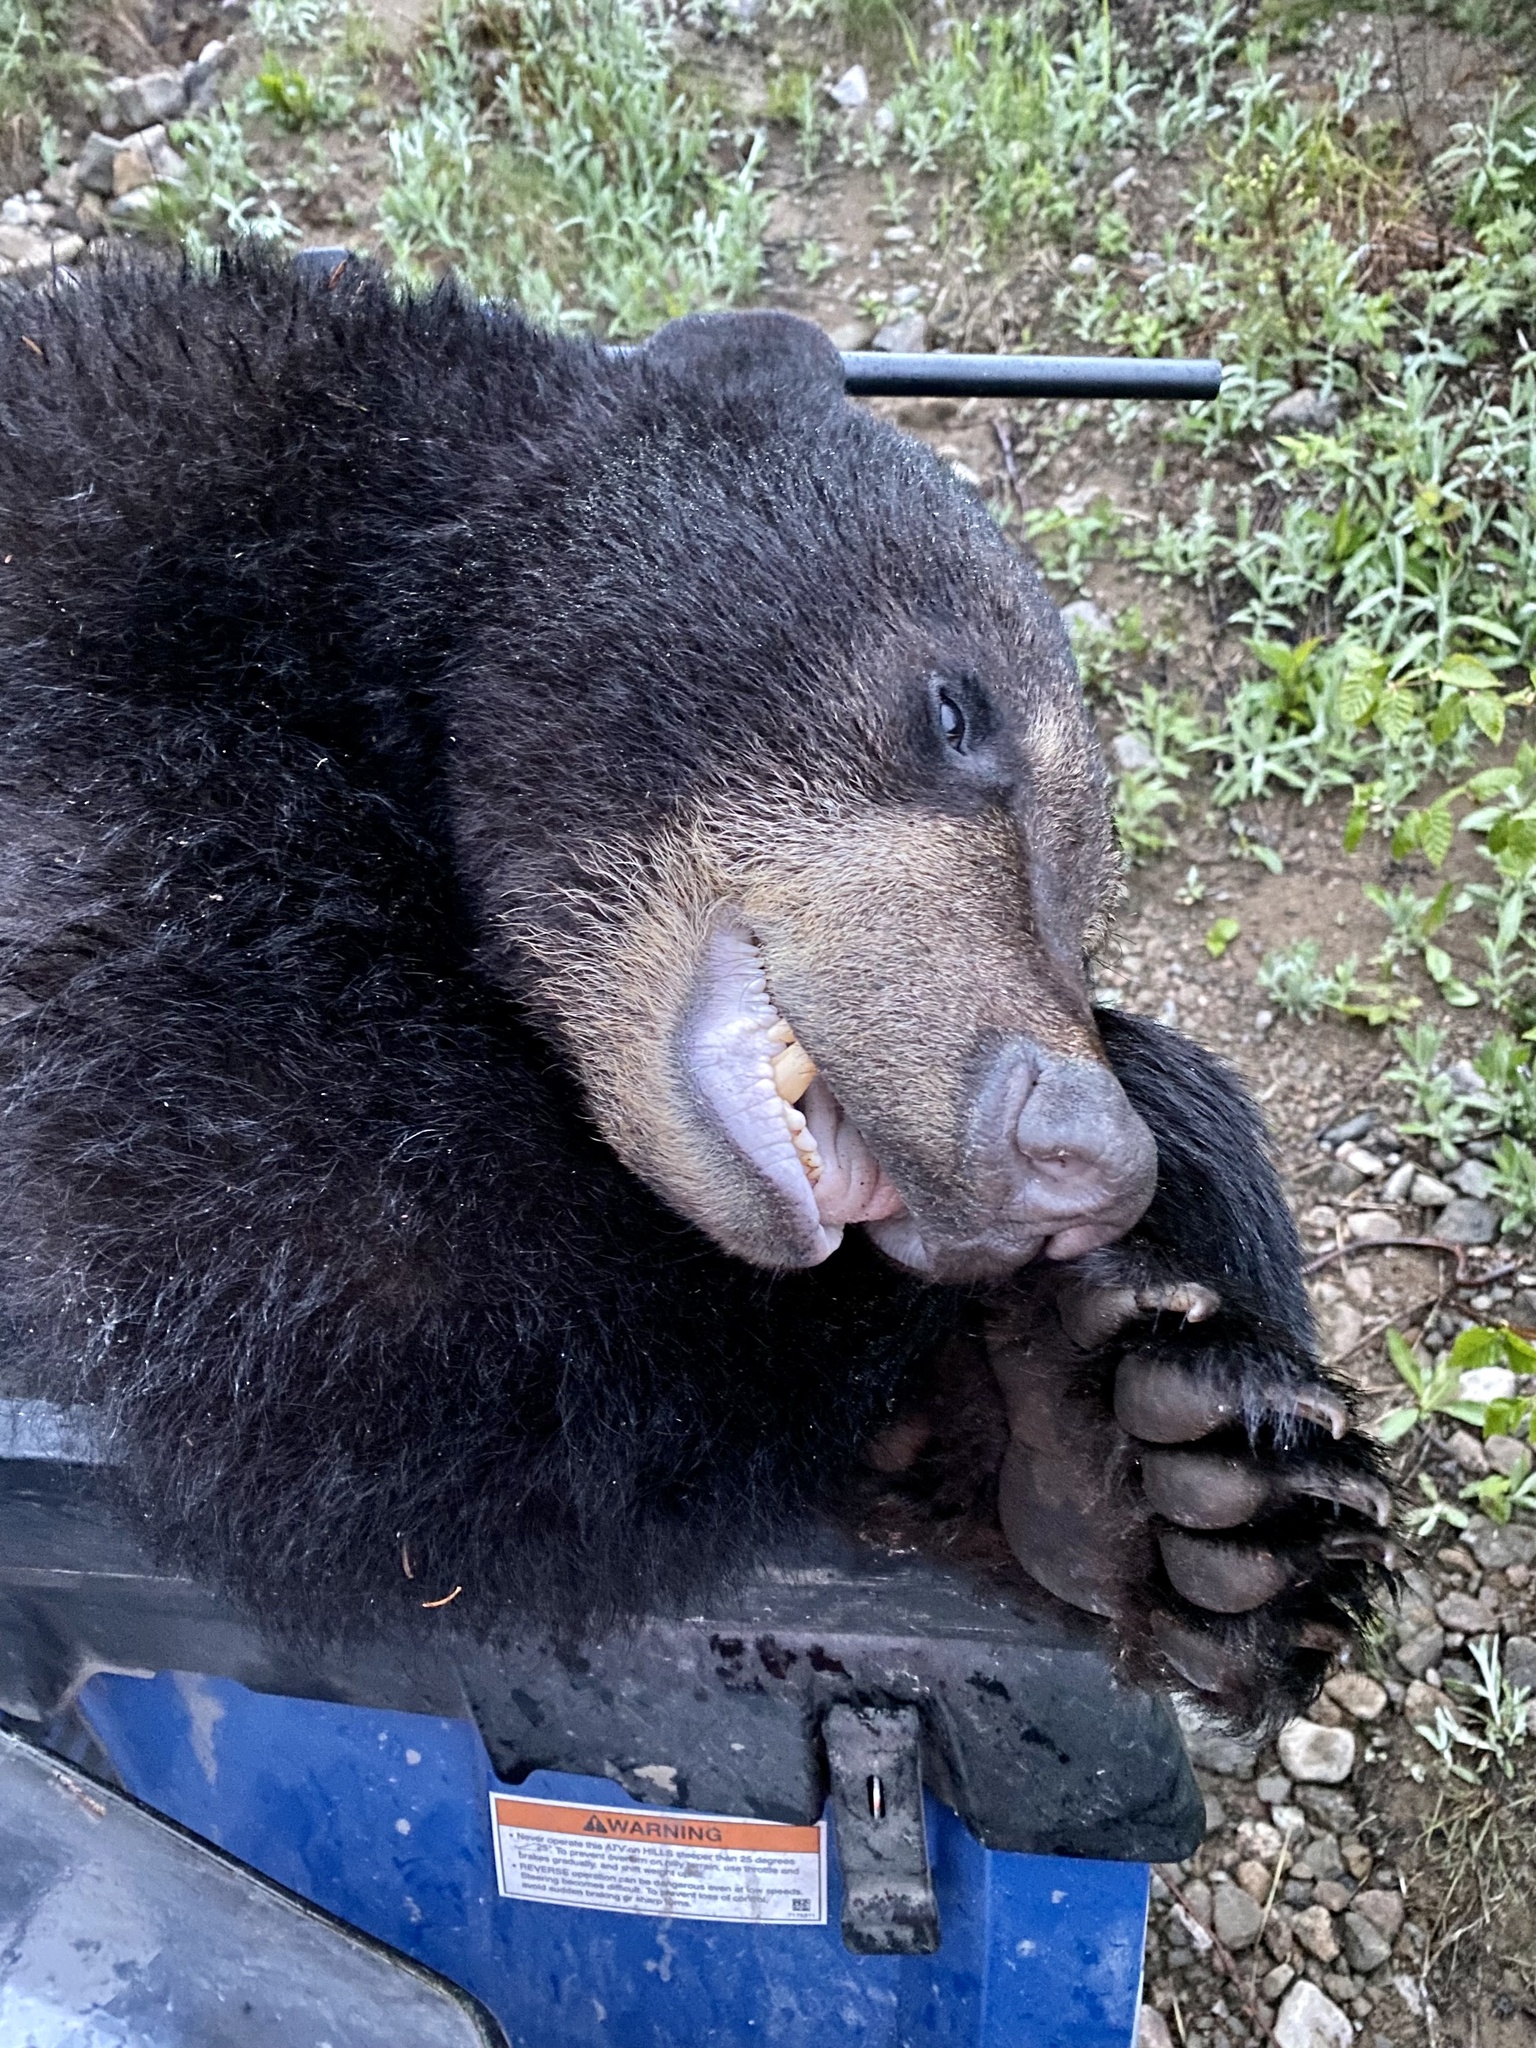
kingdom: Animalia
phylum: Chordata
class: Mammalia
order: Carnivora
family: Ursidae
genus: Ursus
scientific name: Ursus americanus
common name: American black bear
